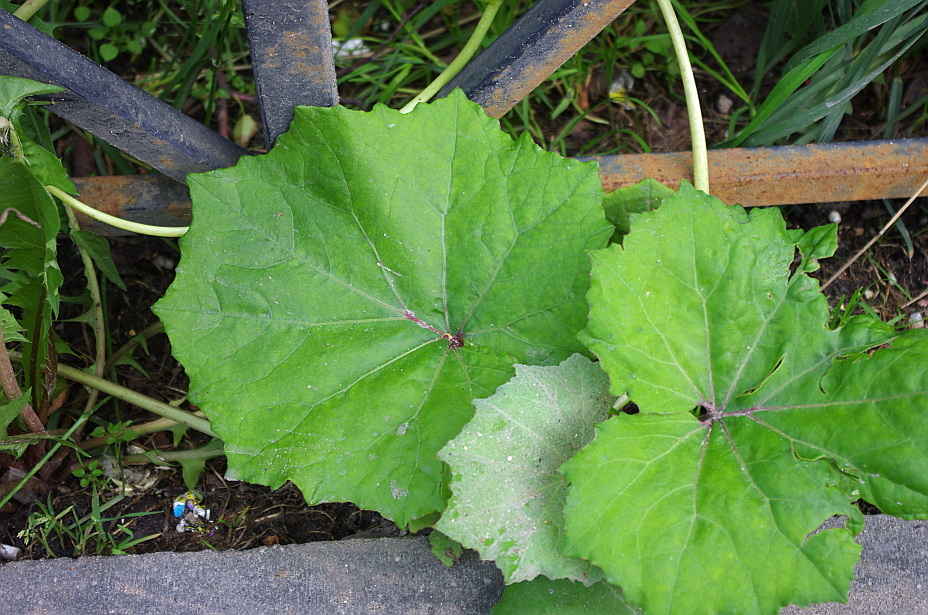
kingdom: Plantae
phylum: Tracheophyta
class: Magnoliopsida
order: Asterales
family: Asteraceae
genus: Tussilago
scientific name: Tussilago farfara
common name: Coltsfoot
